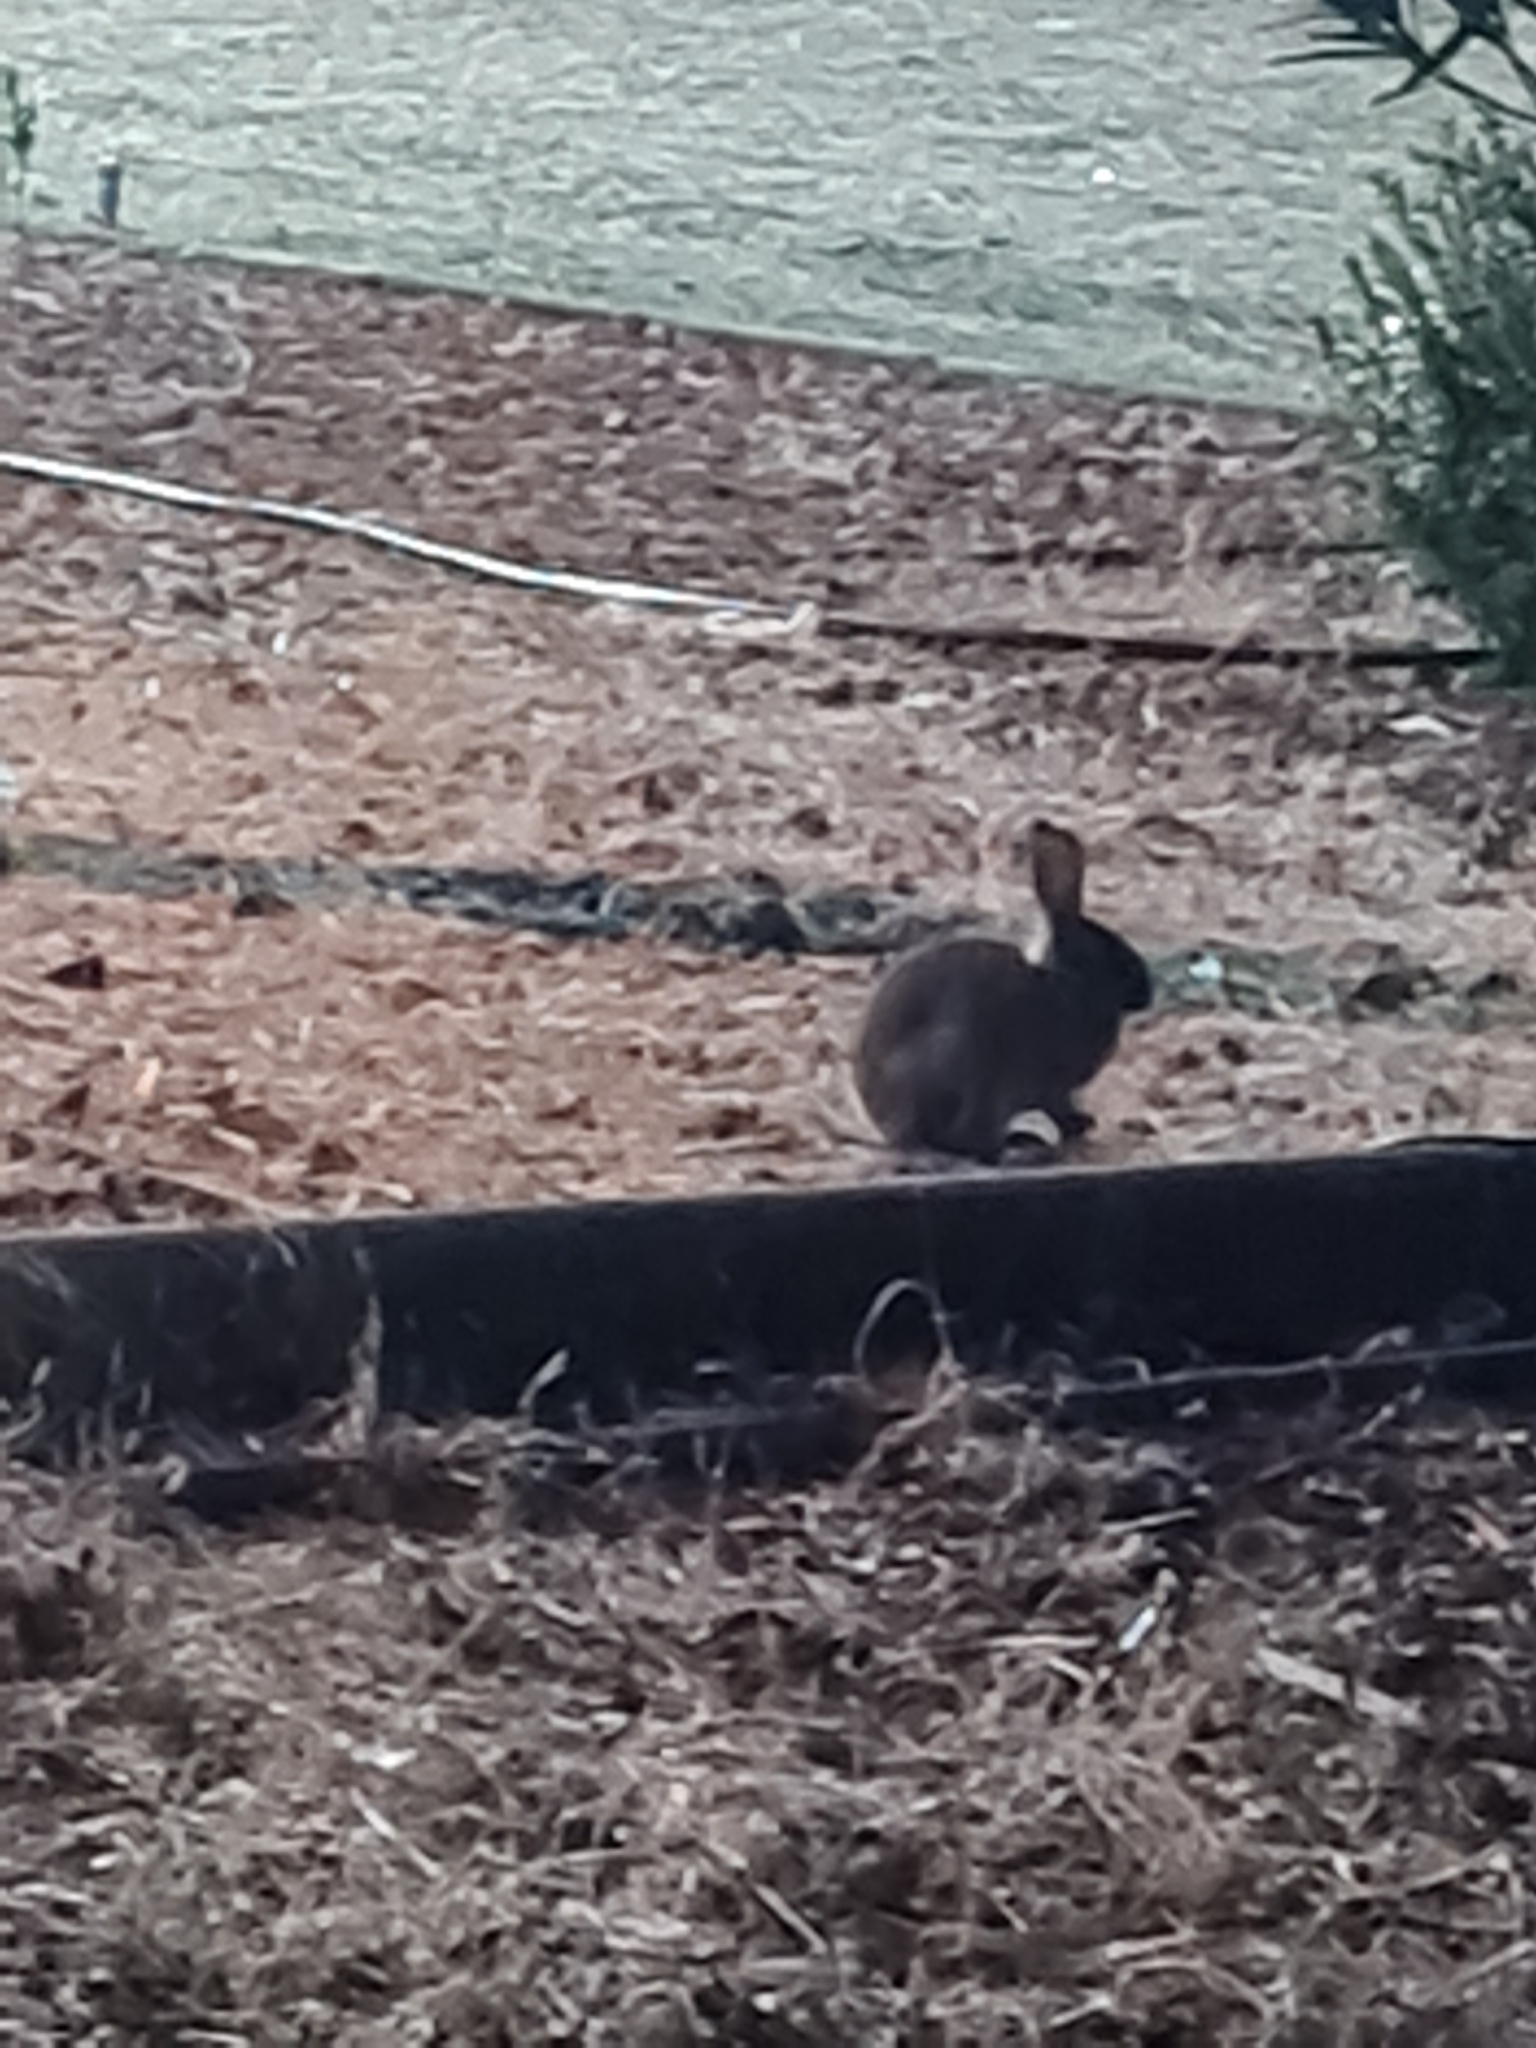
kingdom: Animalia
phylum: Chordata
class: Mammalia
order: Lagomorpha
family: Leporidae
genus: Oryctolagus
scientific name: Oryctolagus cuniculus
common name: European rabbit
